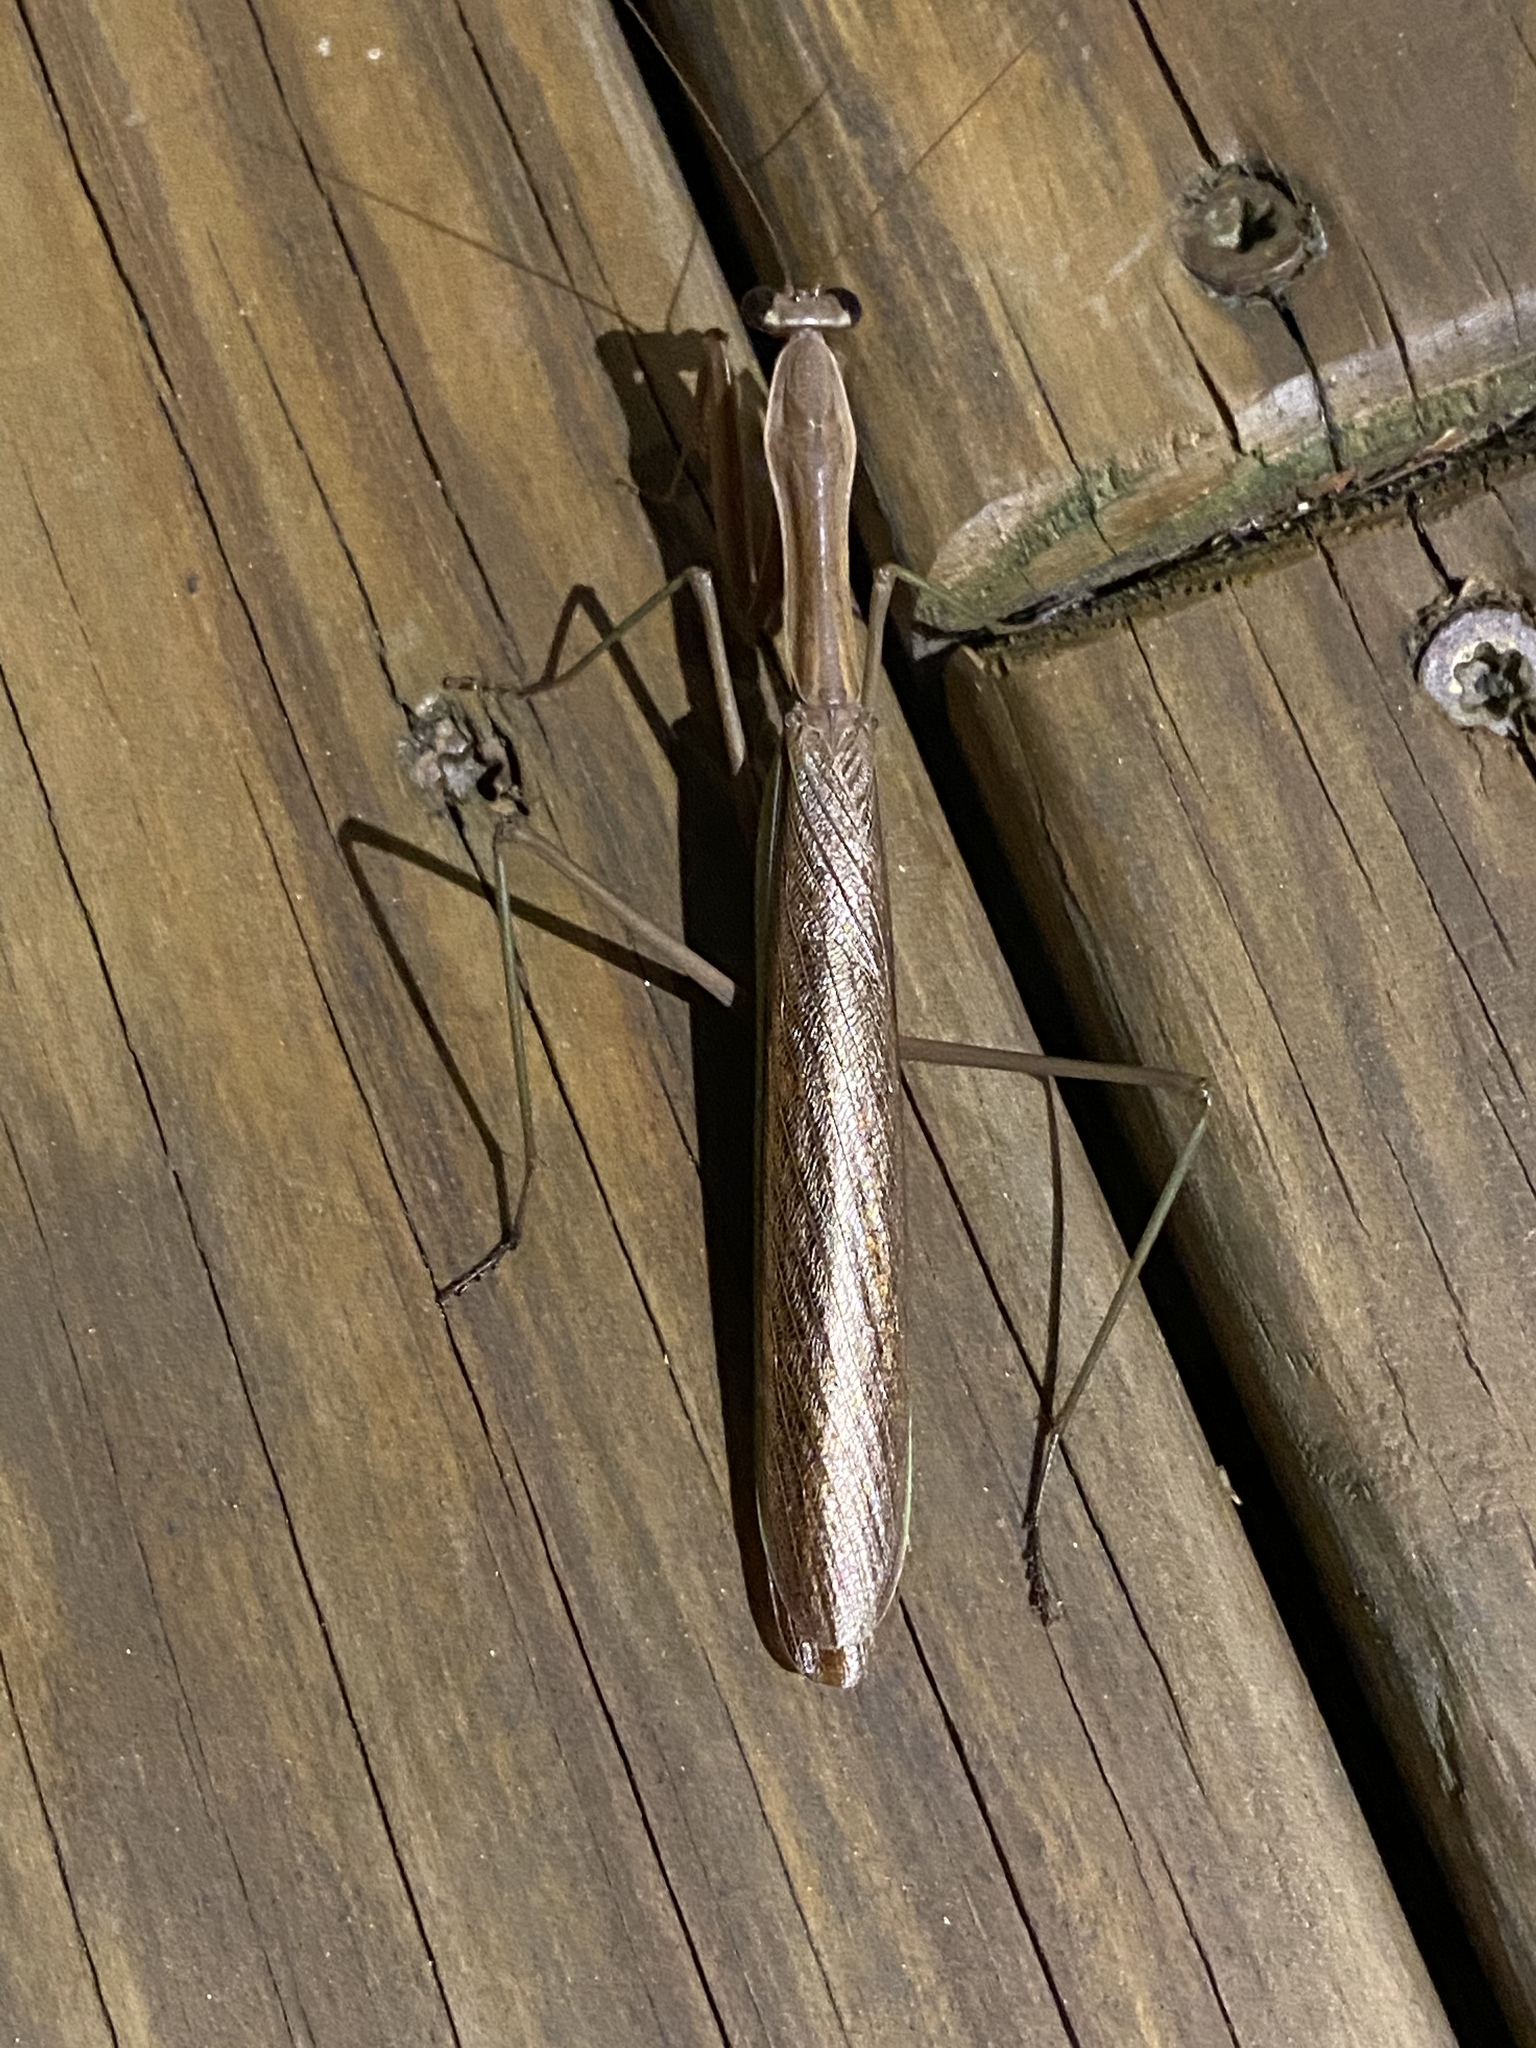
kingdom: Animalia
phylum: Arthropoda
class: Insecta
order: Mantodea
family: Mantidae
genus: Tenodera
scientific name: Tenodera sinensis
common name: Chinese mantis
